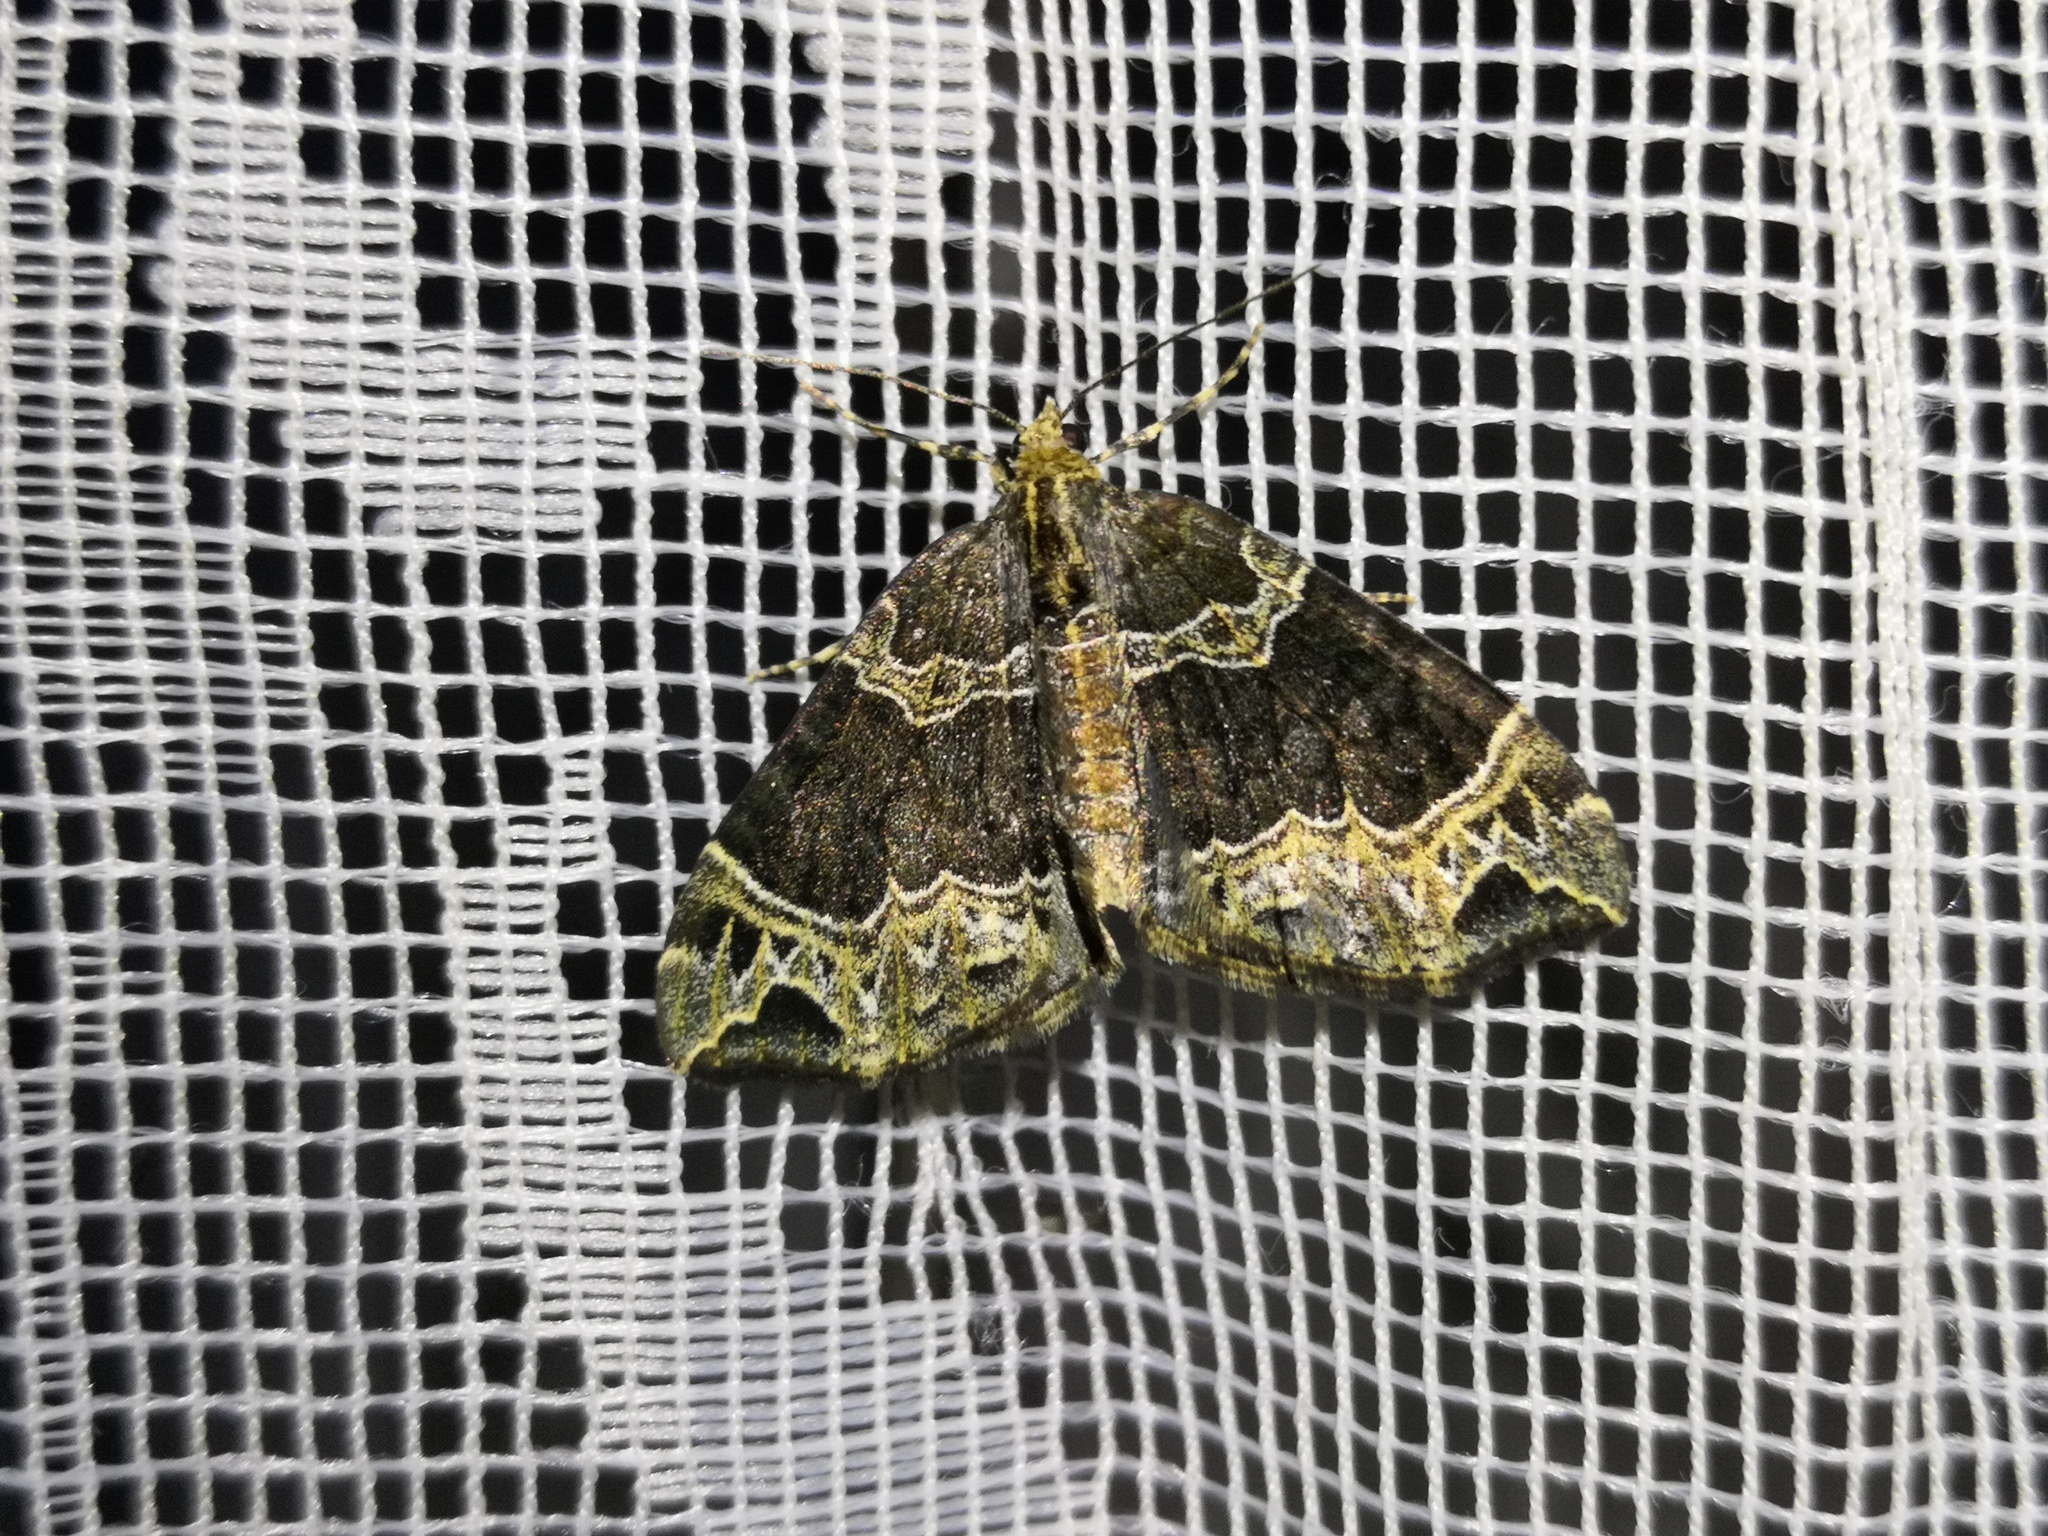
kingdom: Animalia
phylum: Arthropoda
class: Insecta
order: Lepidoptera
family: Geometridae
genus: Ecliptopera
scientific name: Ecliptopera silaceata
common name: Small phoenix
